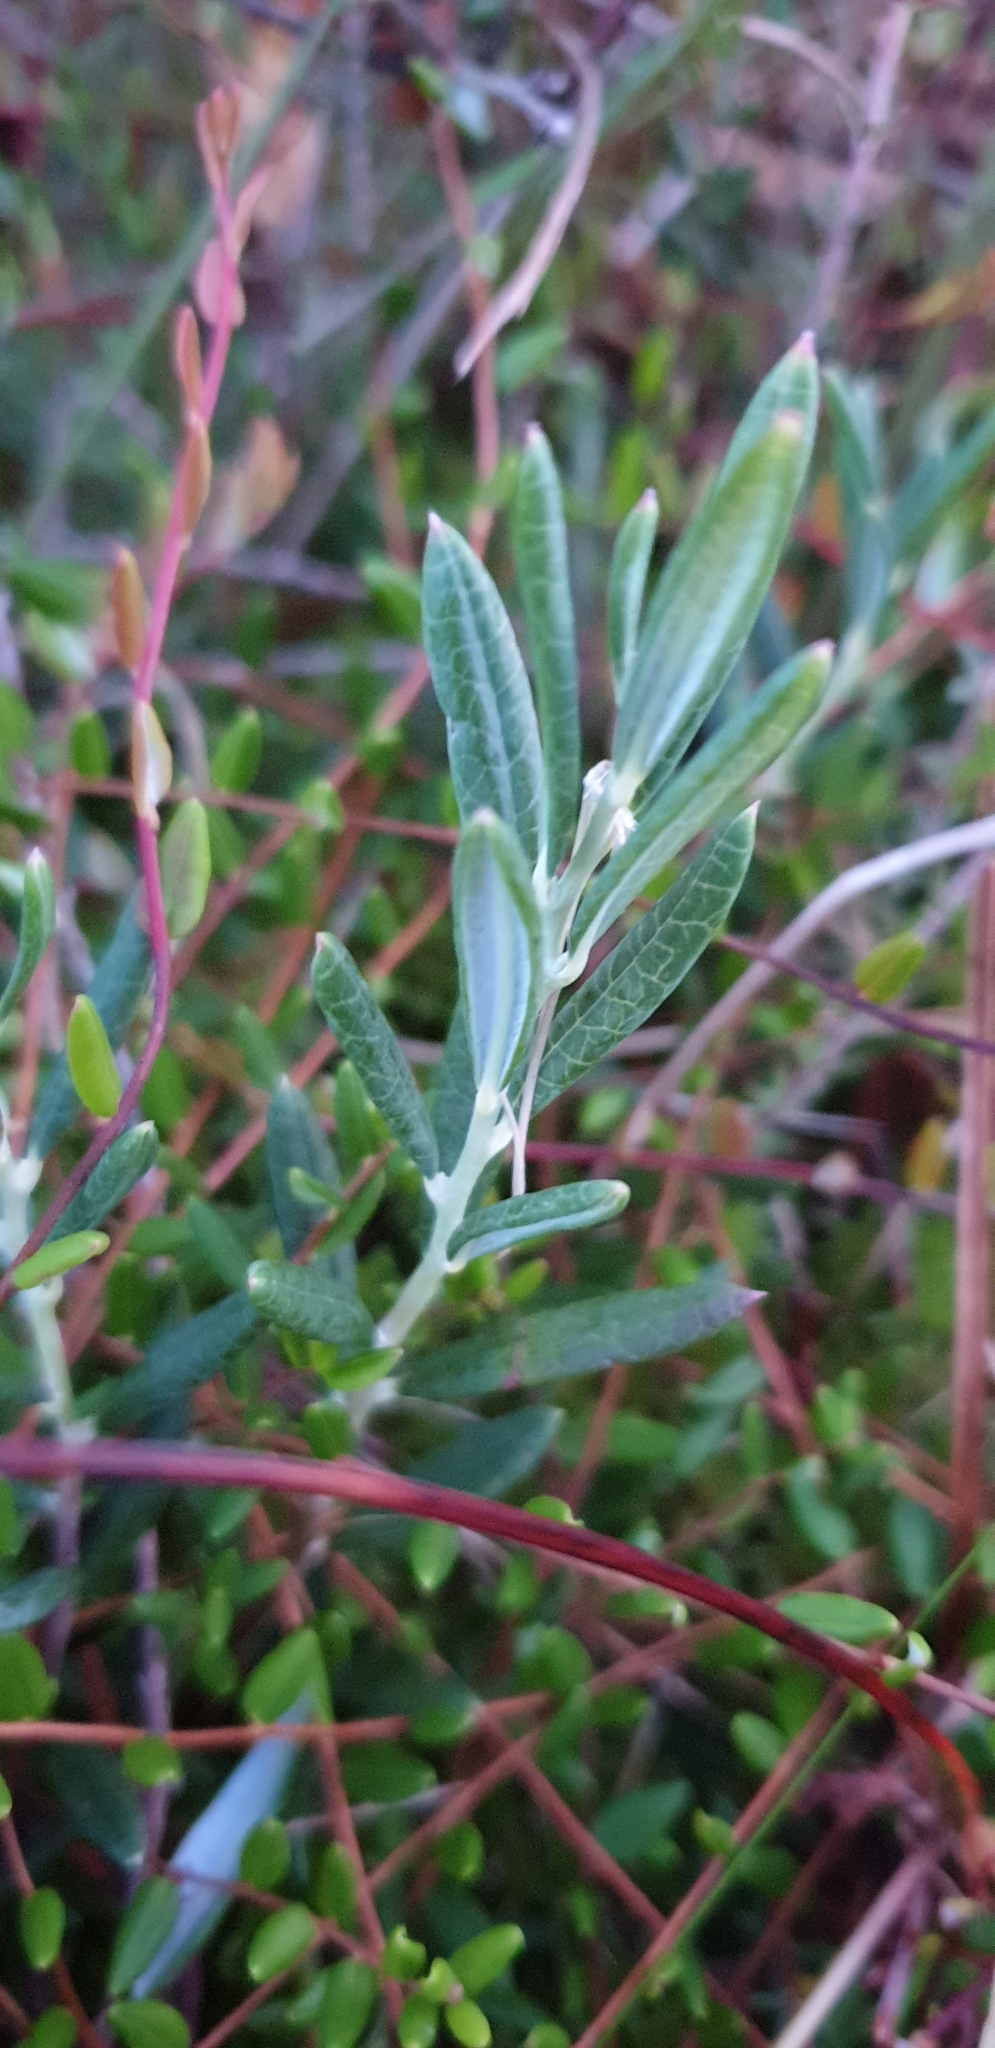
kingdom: Plantae
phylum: Tracheophyta
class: Magnoliopsida
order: Ericales
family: Ericaceae
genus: Andromeda
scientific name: Andromeda polifolia
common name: Bog-rosemary
